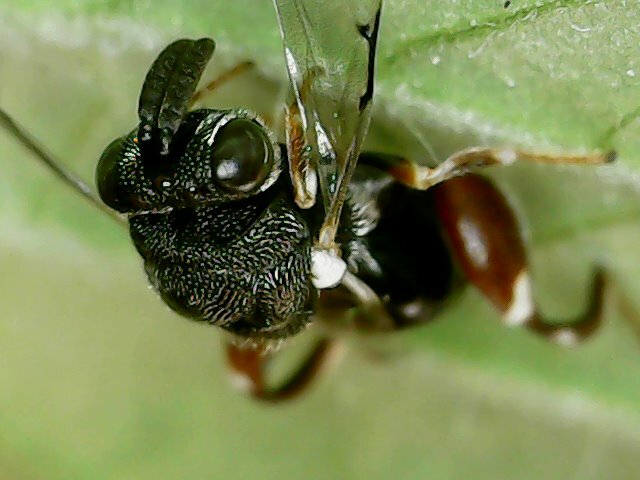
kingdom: Animalia
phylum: Arthropoda
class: Insecta
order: Hymenoptera
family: Chalcididae
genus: Brachymeria
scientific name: Brachymeria podagrica
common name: Chalcid wasp
